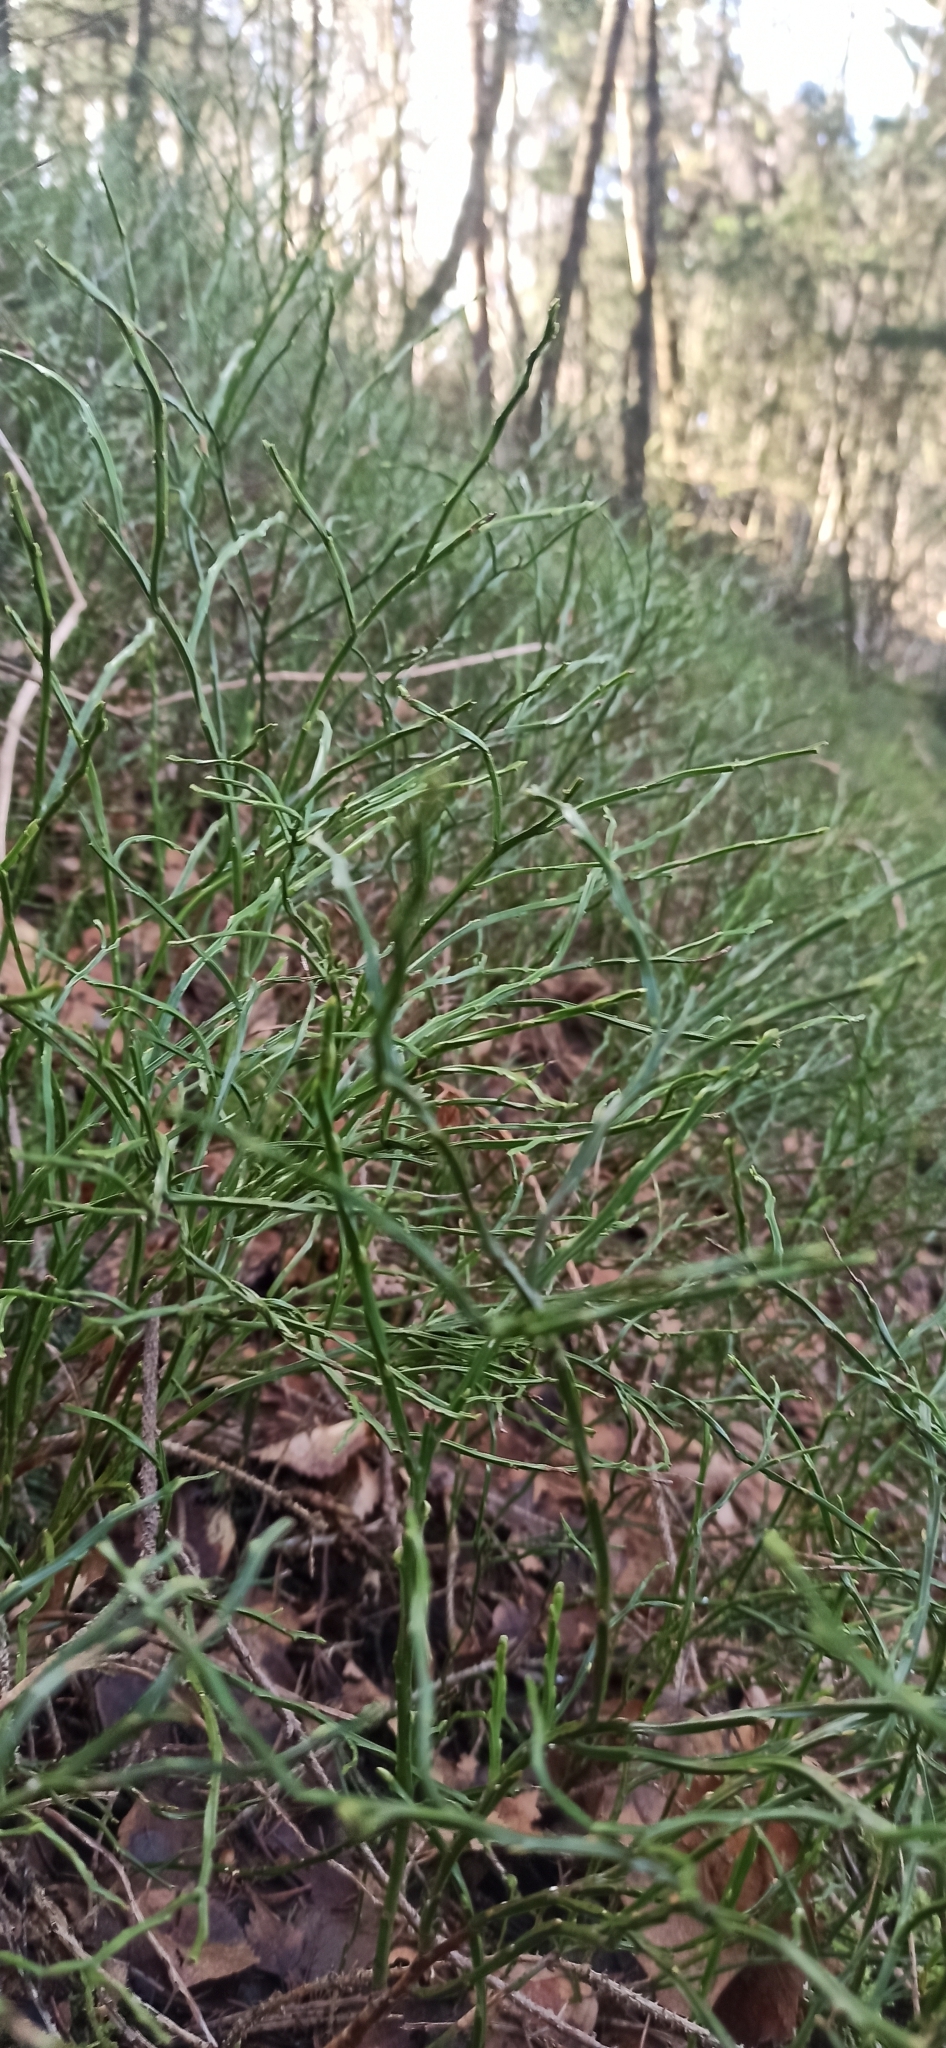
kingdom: Plantae
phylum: Tracheophyta
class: Magnoliopsida
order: Ericales
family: Ericaceae
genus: Vaccinium
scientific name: Vaccinium myrtillus
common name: Bilberry
